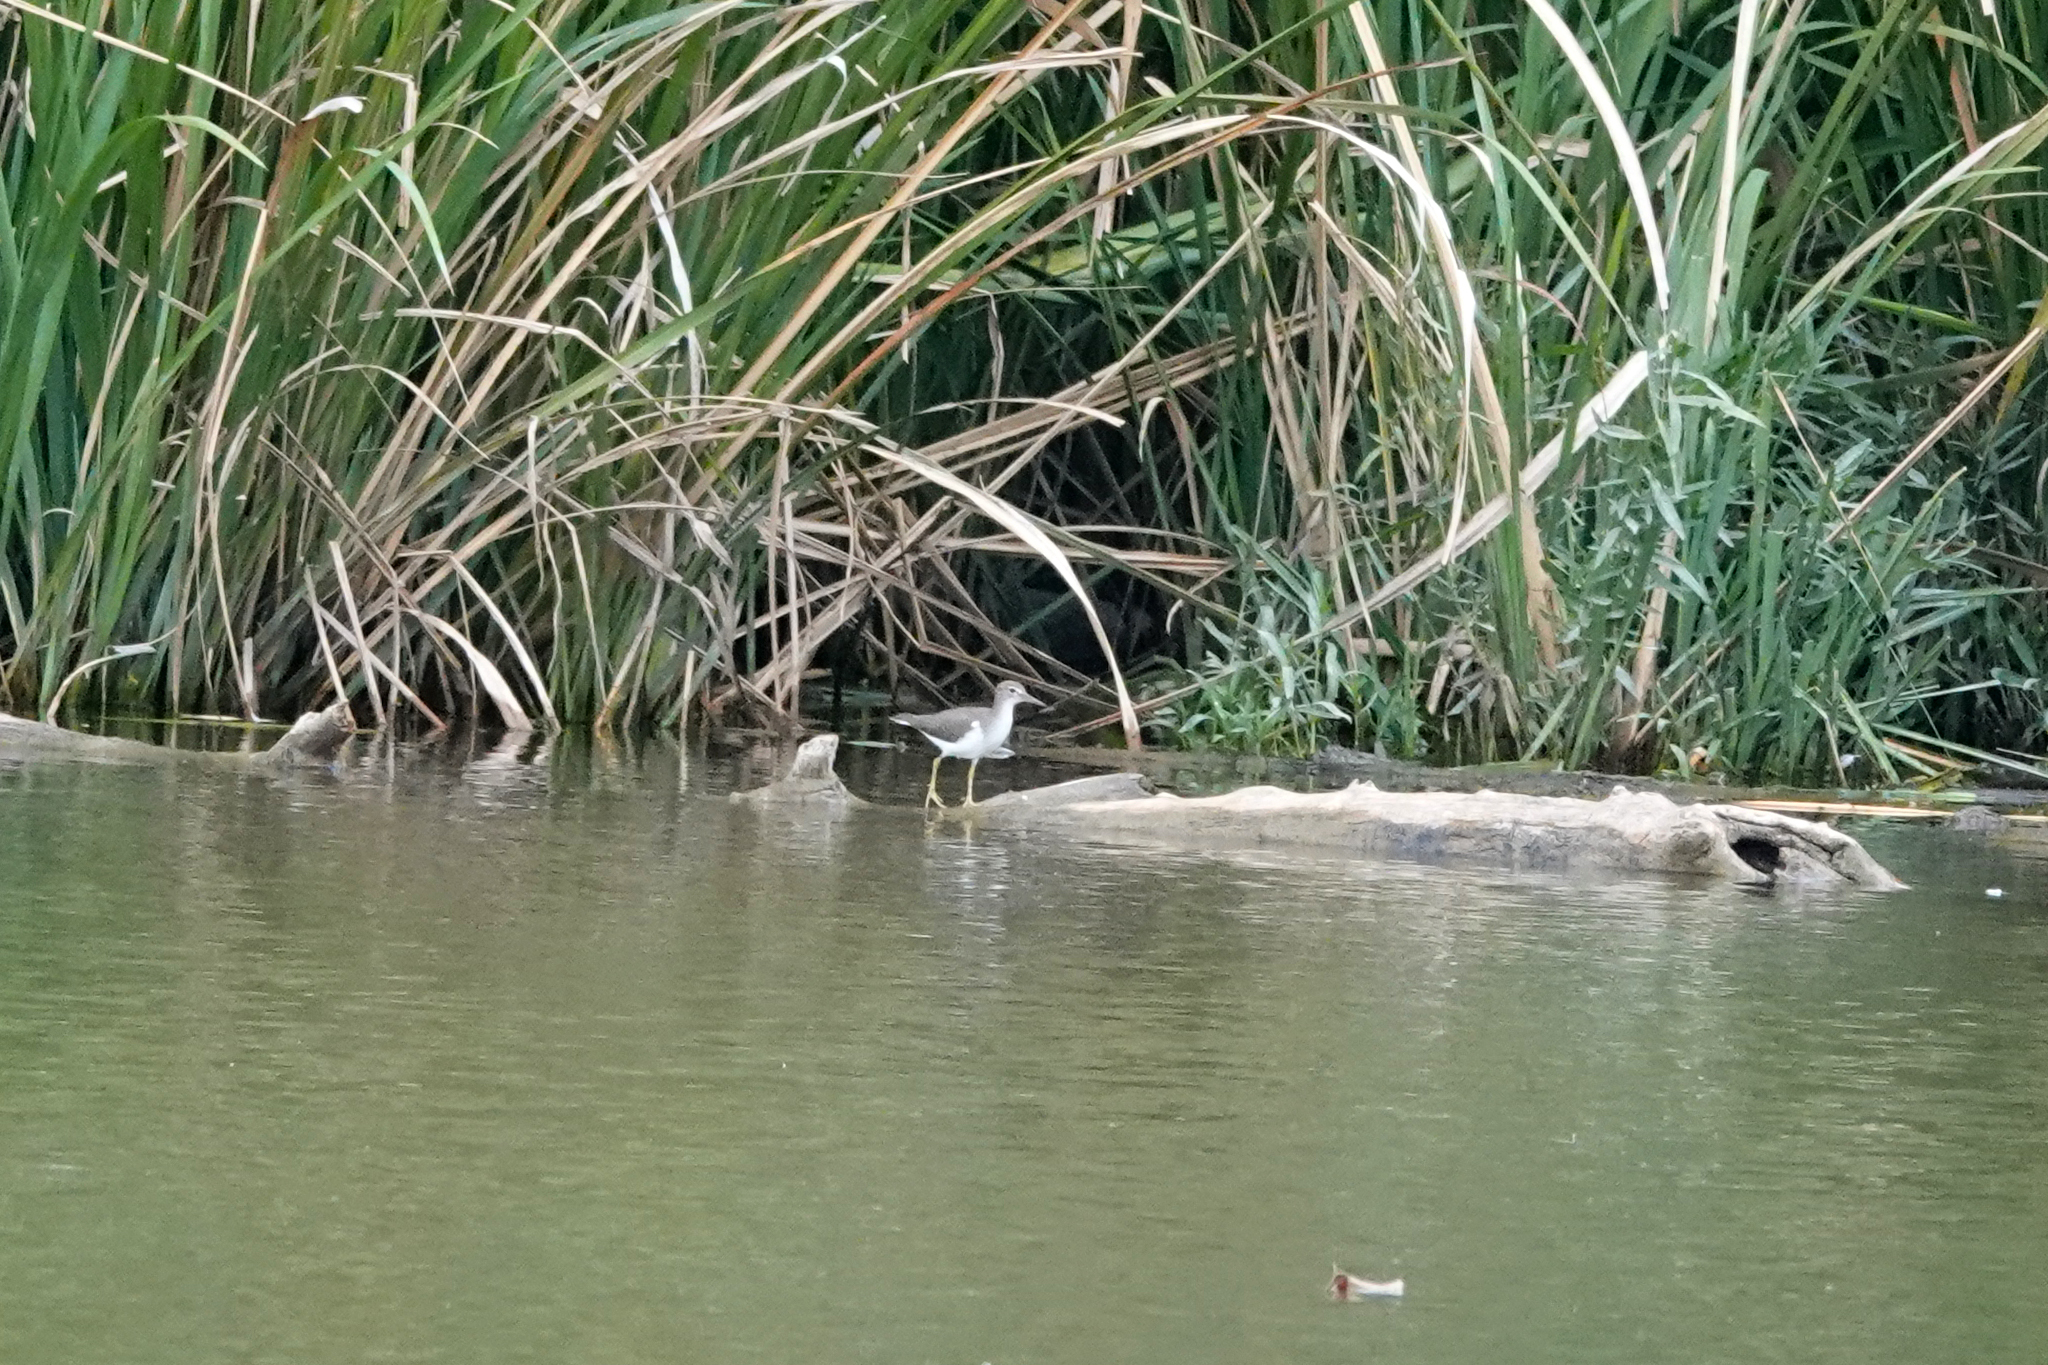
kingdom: Animalia
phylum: Chordata
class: Aves
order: Charadriiformes
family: Scolopacidae
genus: Actitis
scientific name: Actitis macularius
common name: Spotted sandpiper
